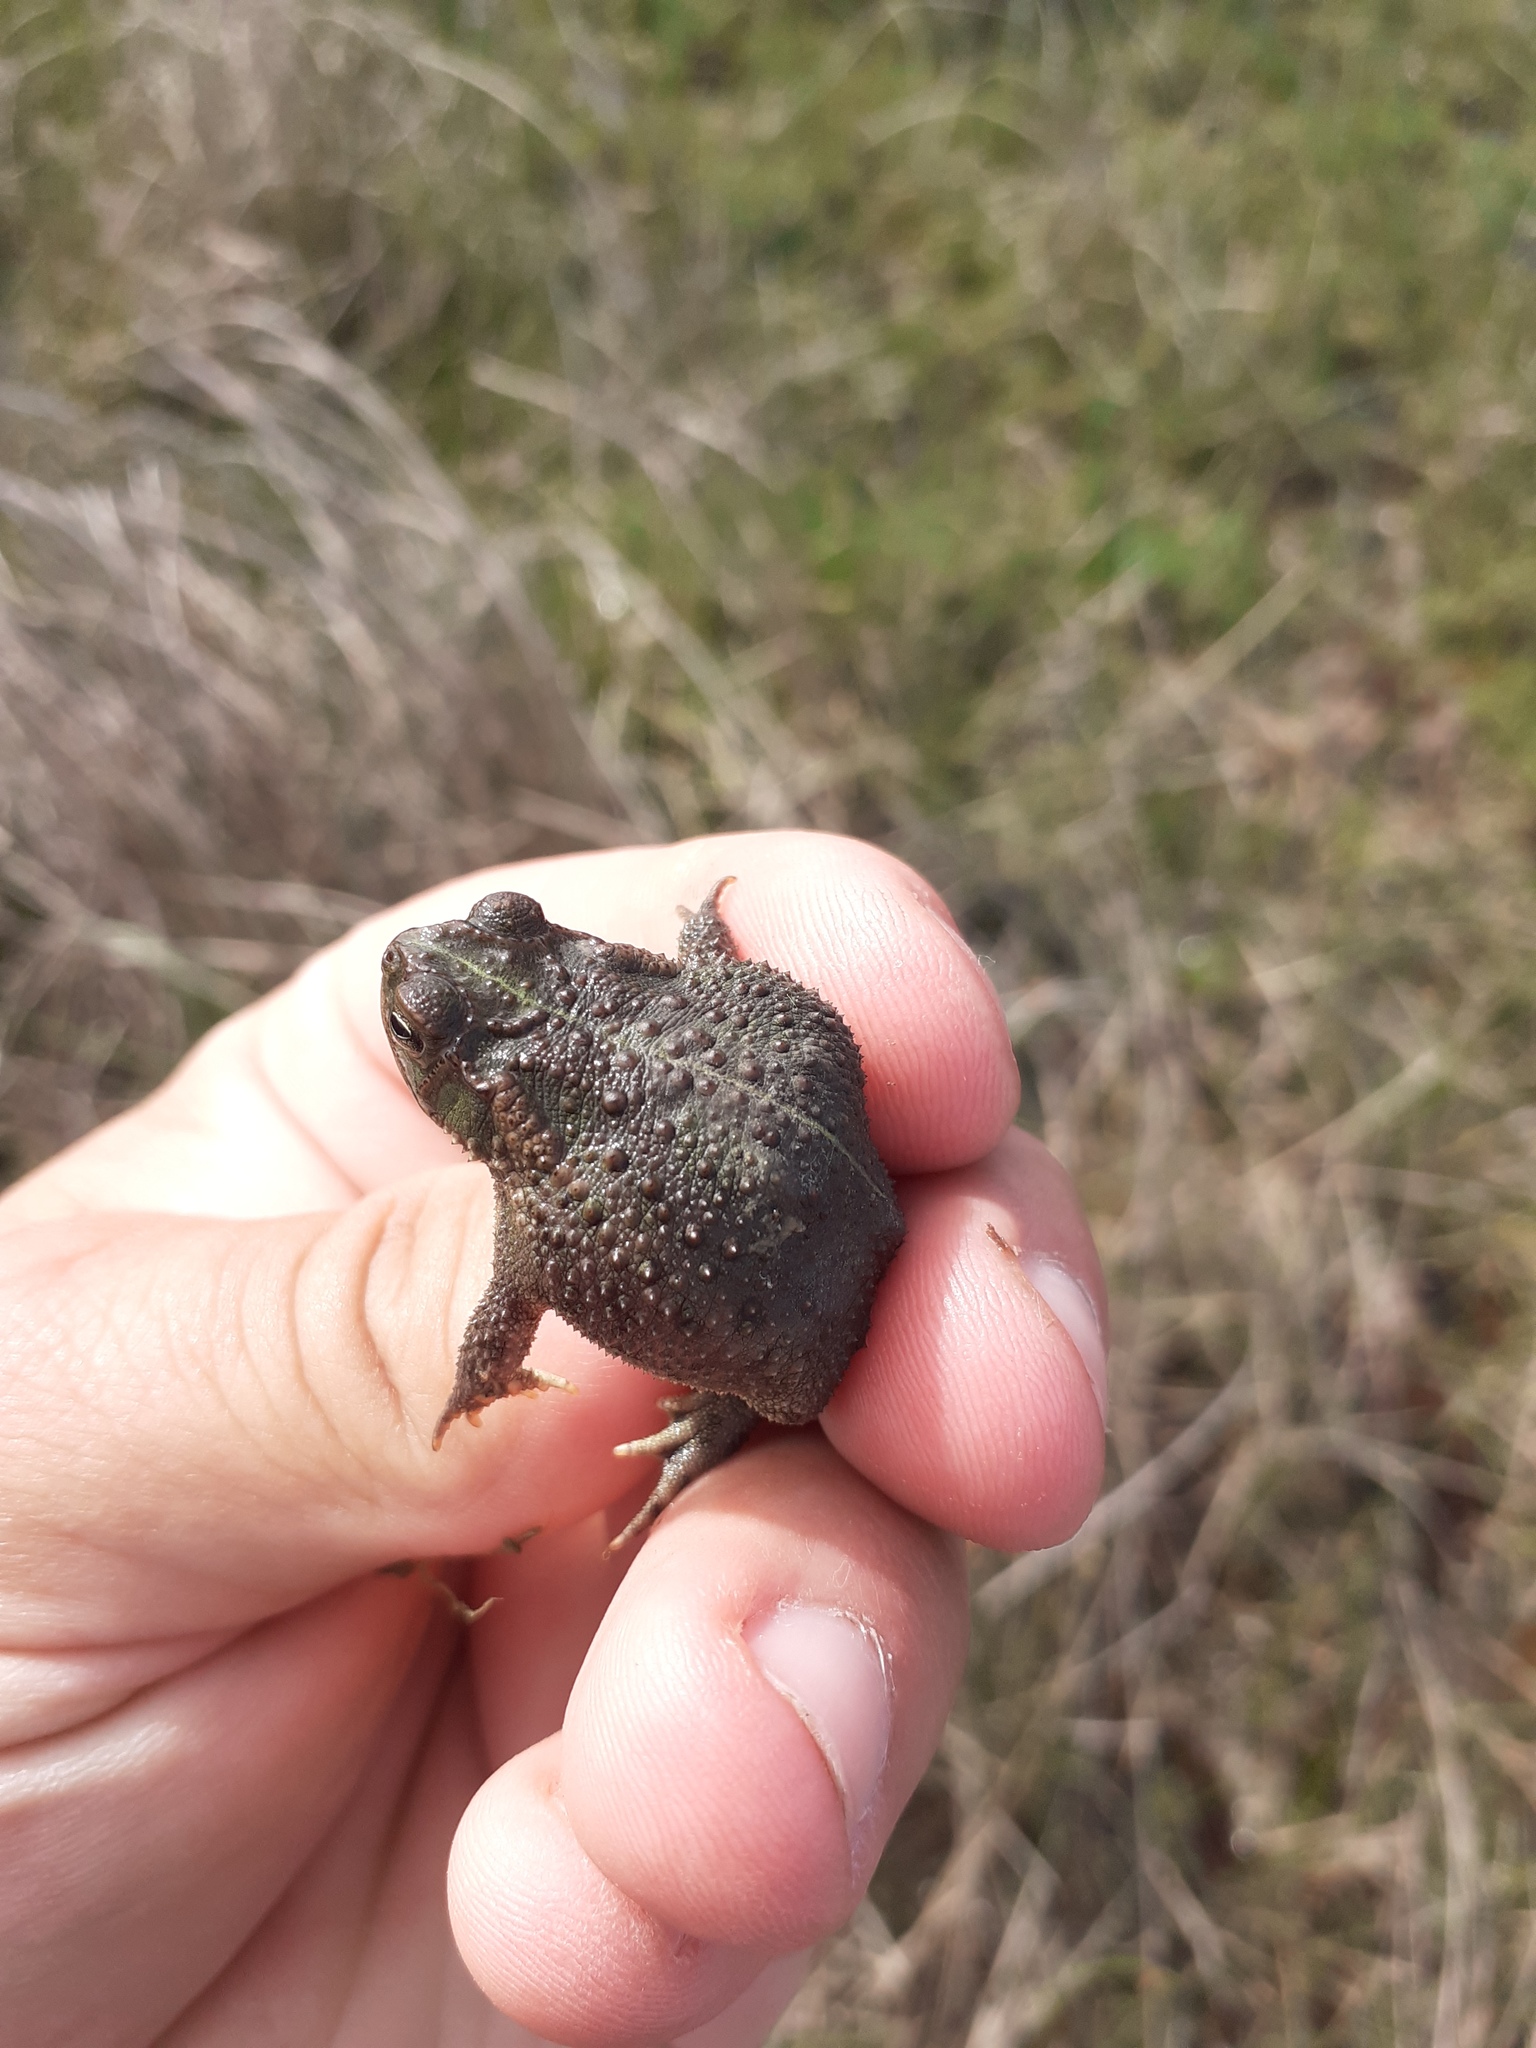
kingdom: Animalia
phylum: Chordata
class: Amphibia
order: Anura
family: Bufonidae
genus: Rhinella
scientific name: Rhinella dorbignyi
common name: D´orbigny’s toad
